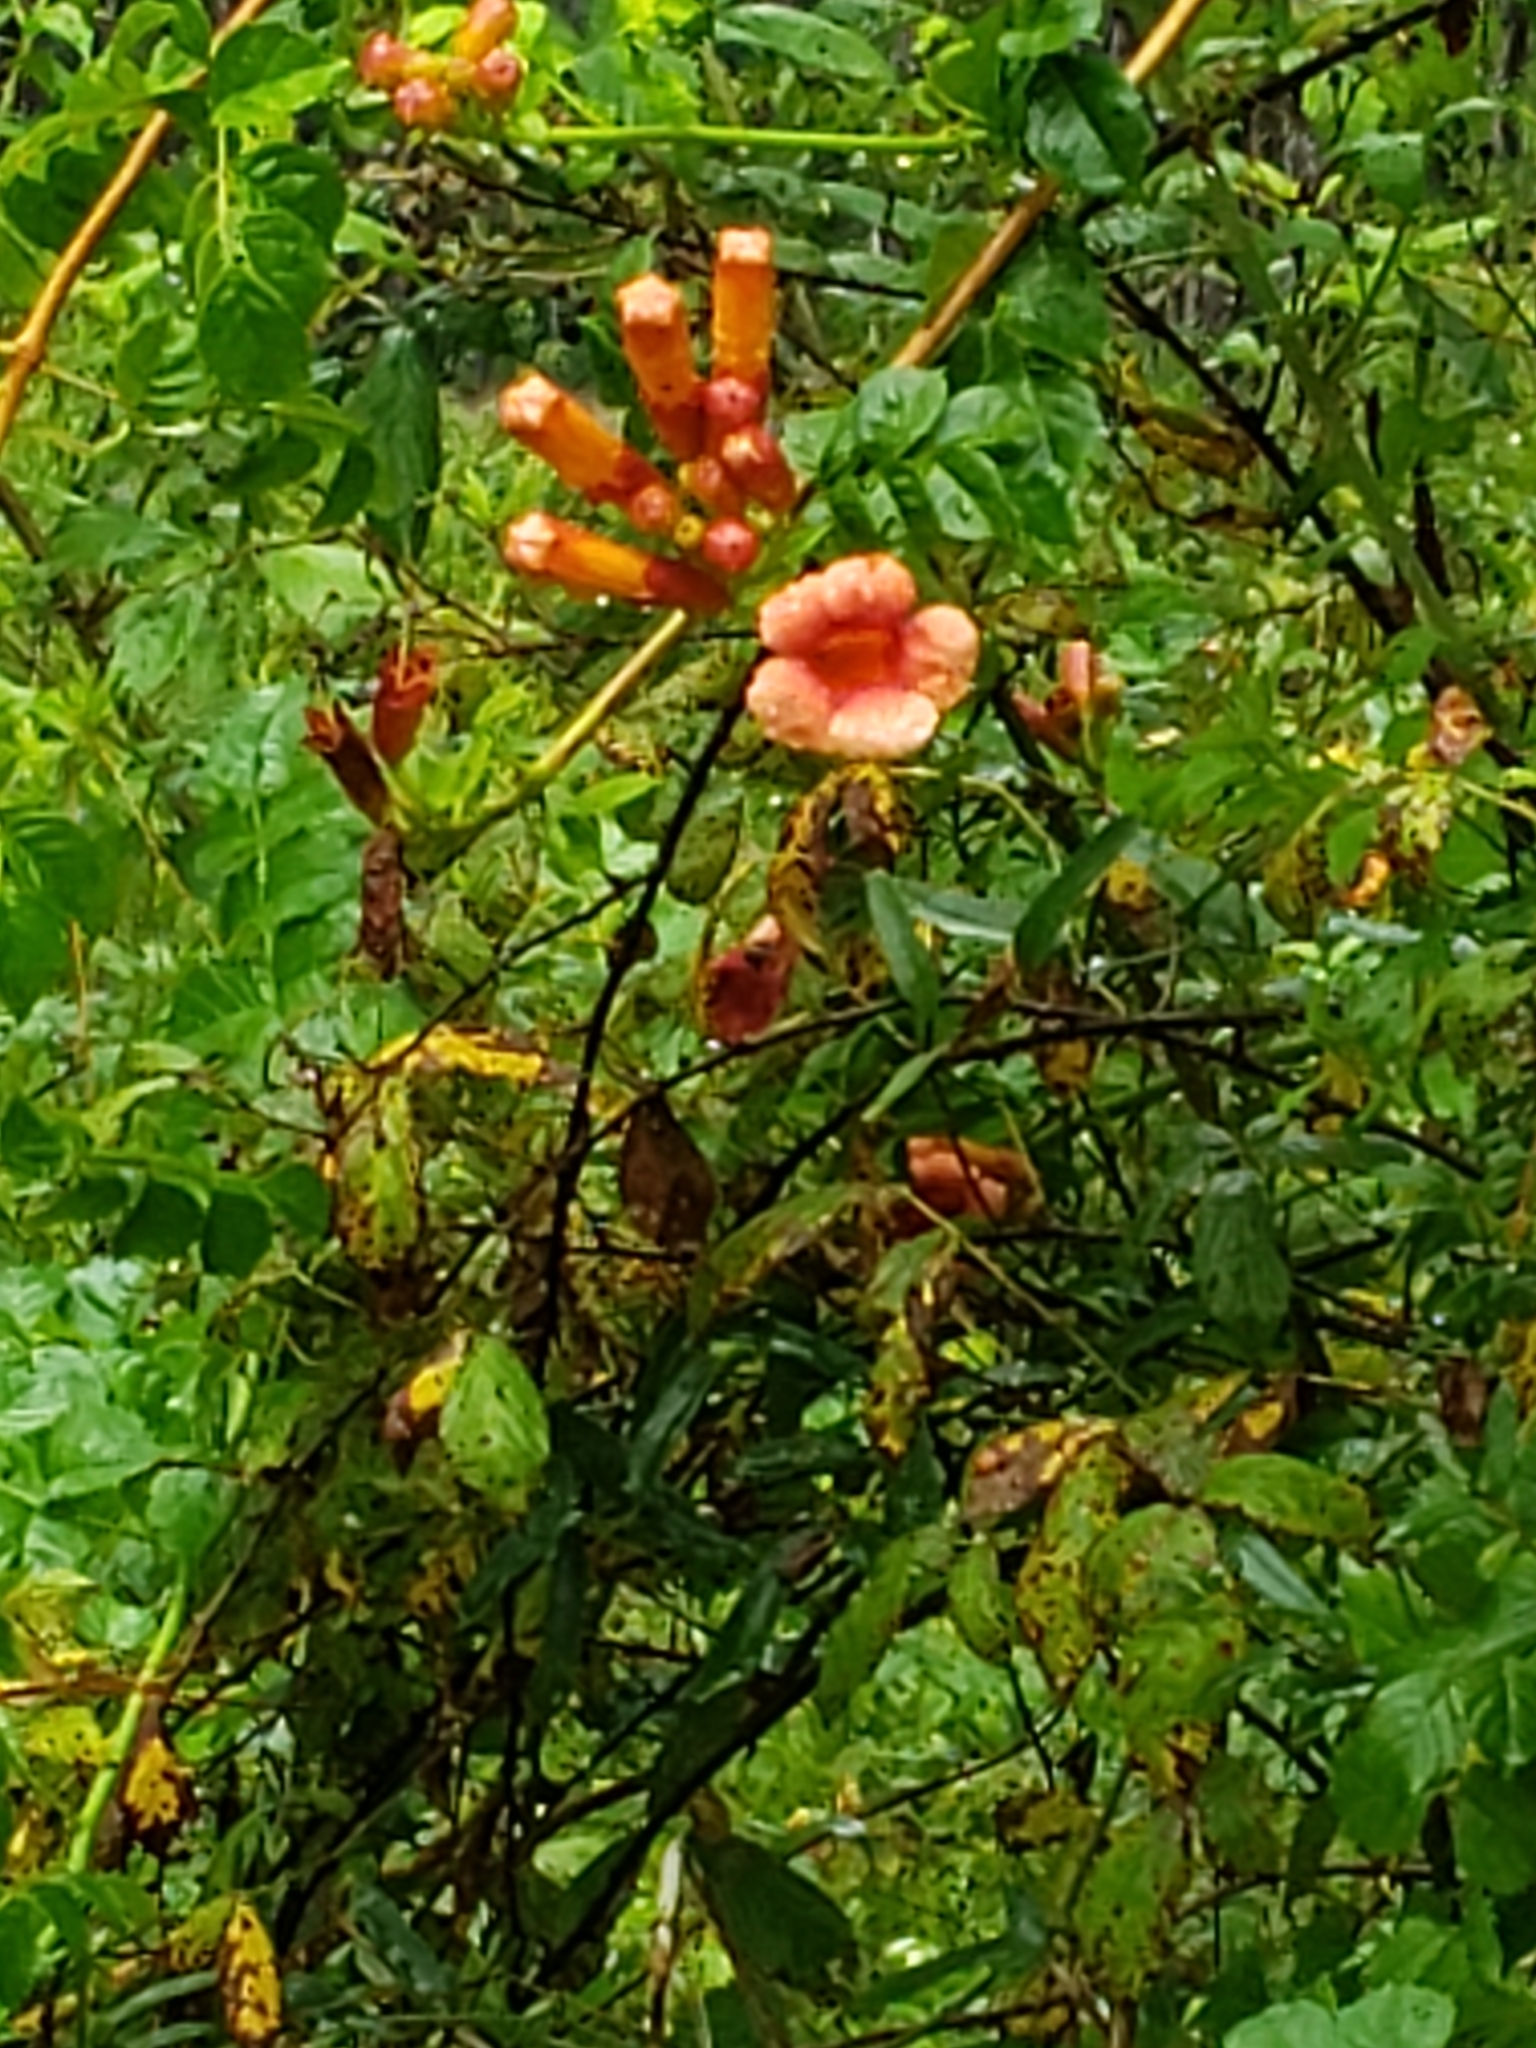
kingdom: Plantae
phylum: Tracheophyta
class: Magnoliopsida
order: Lamiales
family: Bignoniaceae
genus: Campsis
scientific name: Campsis radicans
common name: Trumpet-creeper
